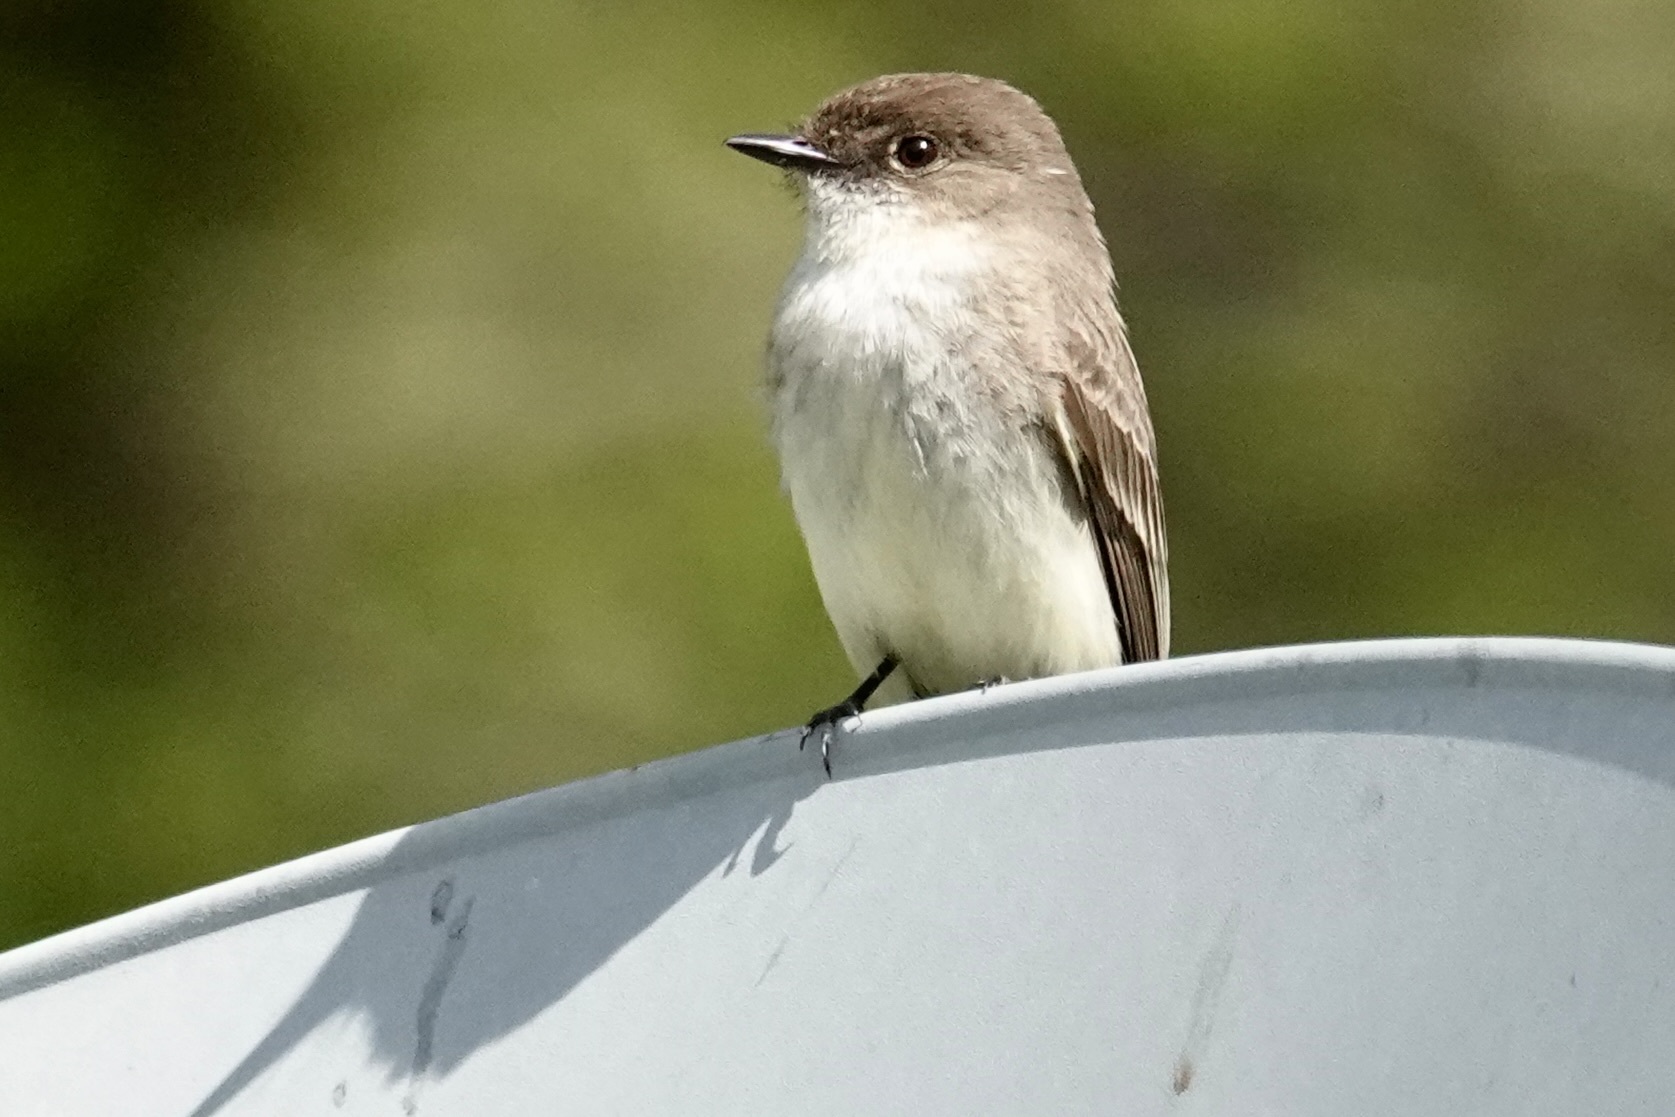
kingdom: Animalia
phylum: Chordata
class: Aves
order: Passeriformes
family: Tyrannidae
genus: Sayornis
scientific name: Sayornis phoebe
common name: Eastern phoebe
